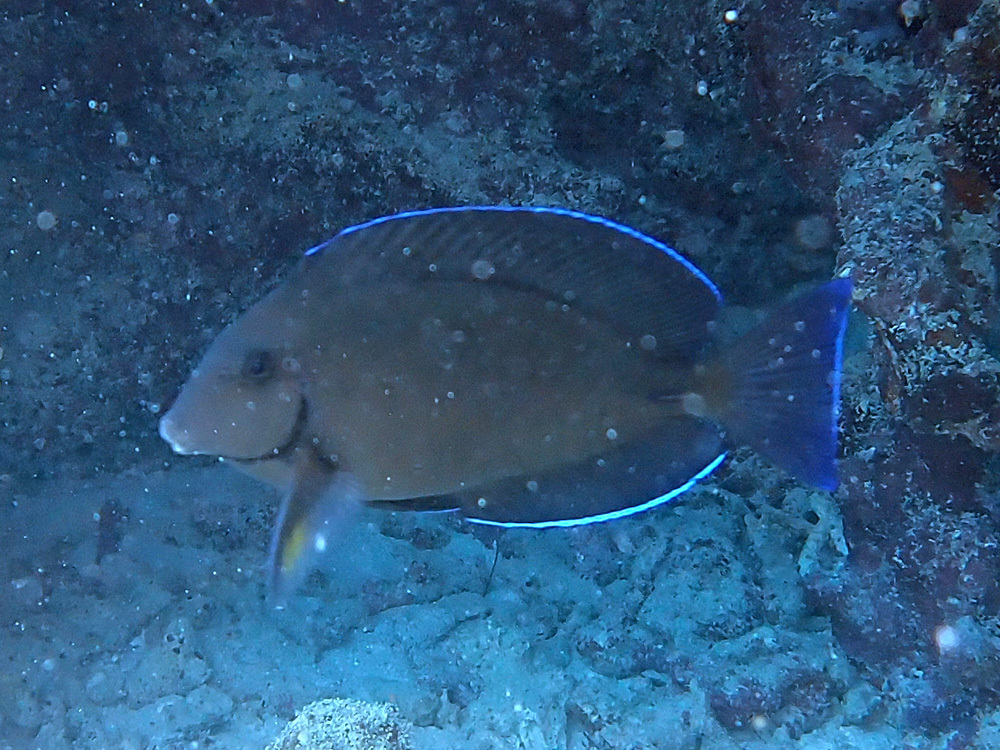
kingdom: Animalia
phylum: Chordata
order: Perciformes
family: Acanthuridae
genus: Acanthurus
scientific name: Acanthurus bahianus
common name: Ocean surgeon
